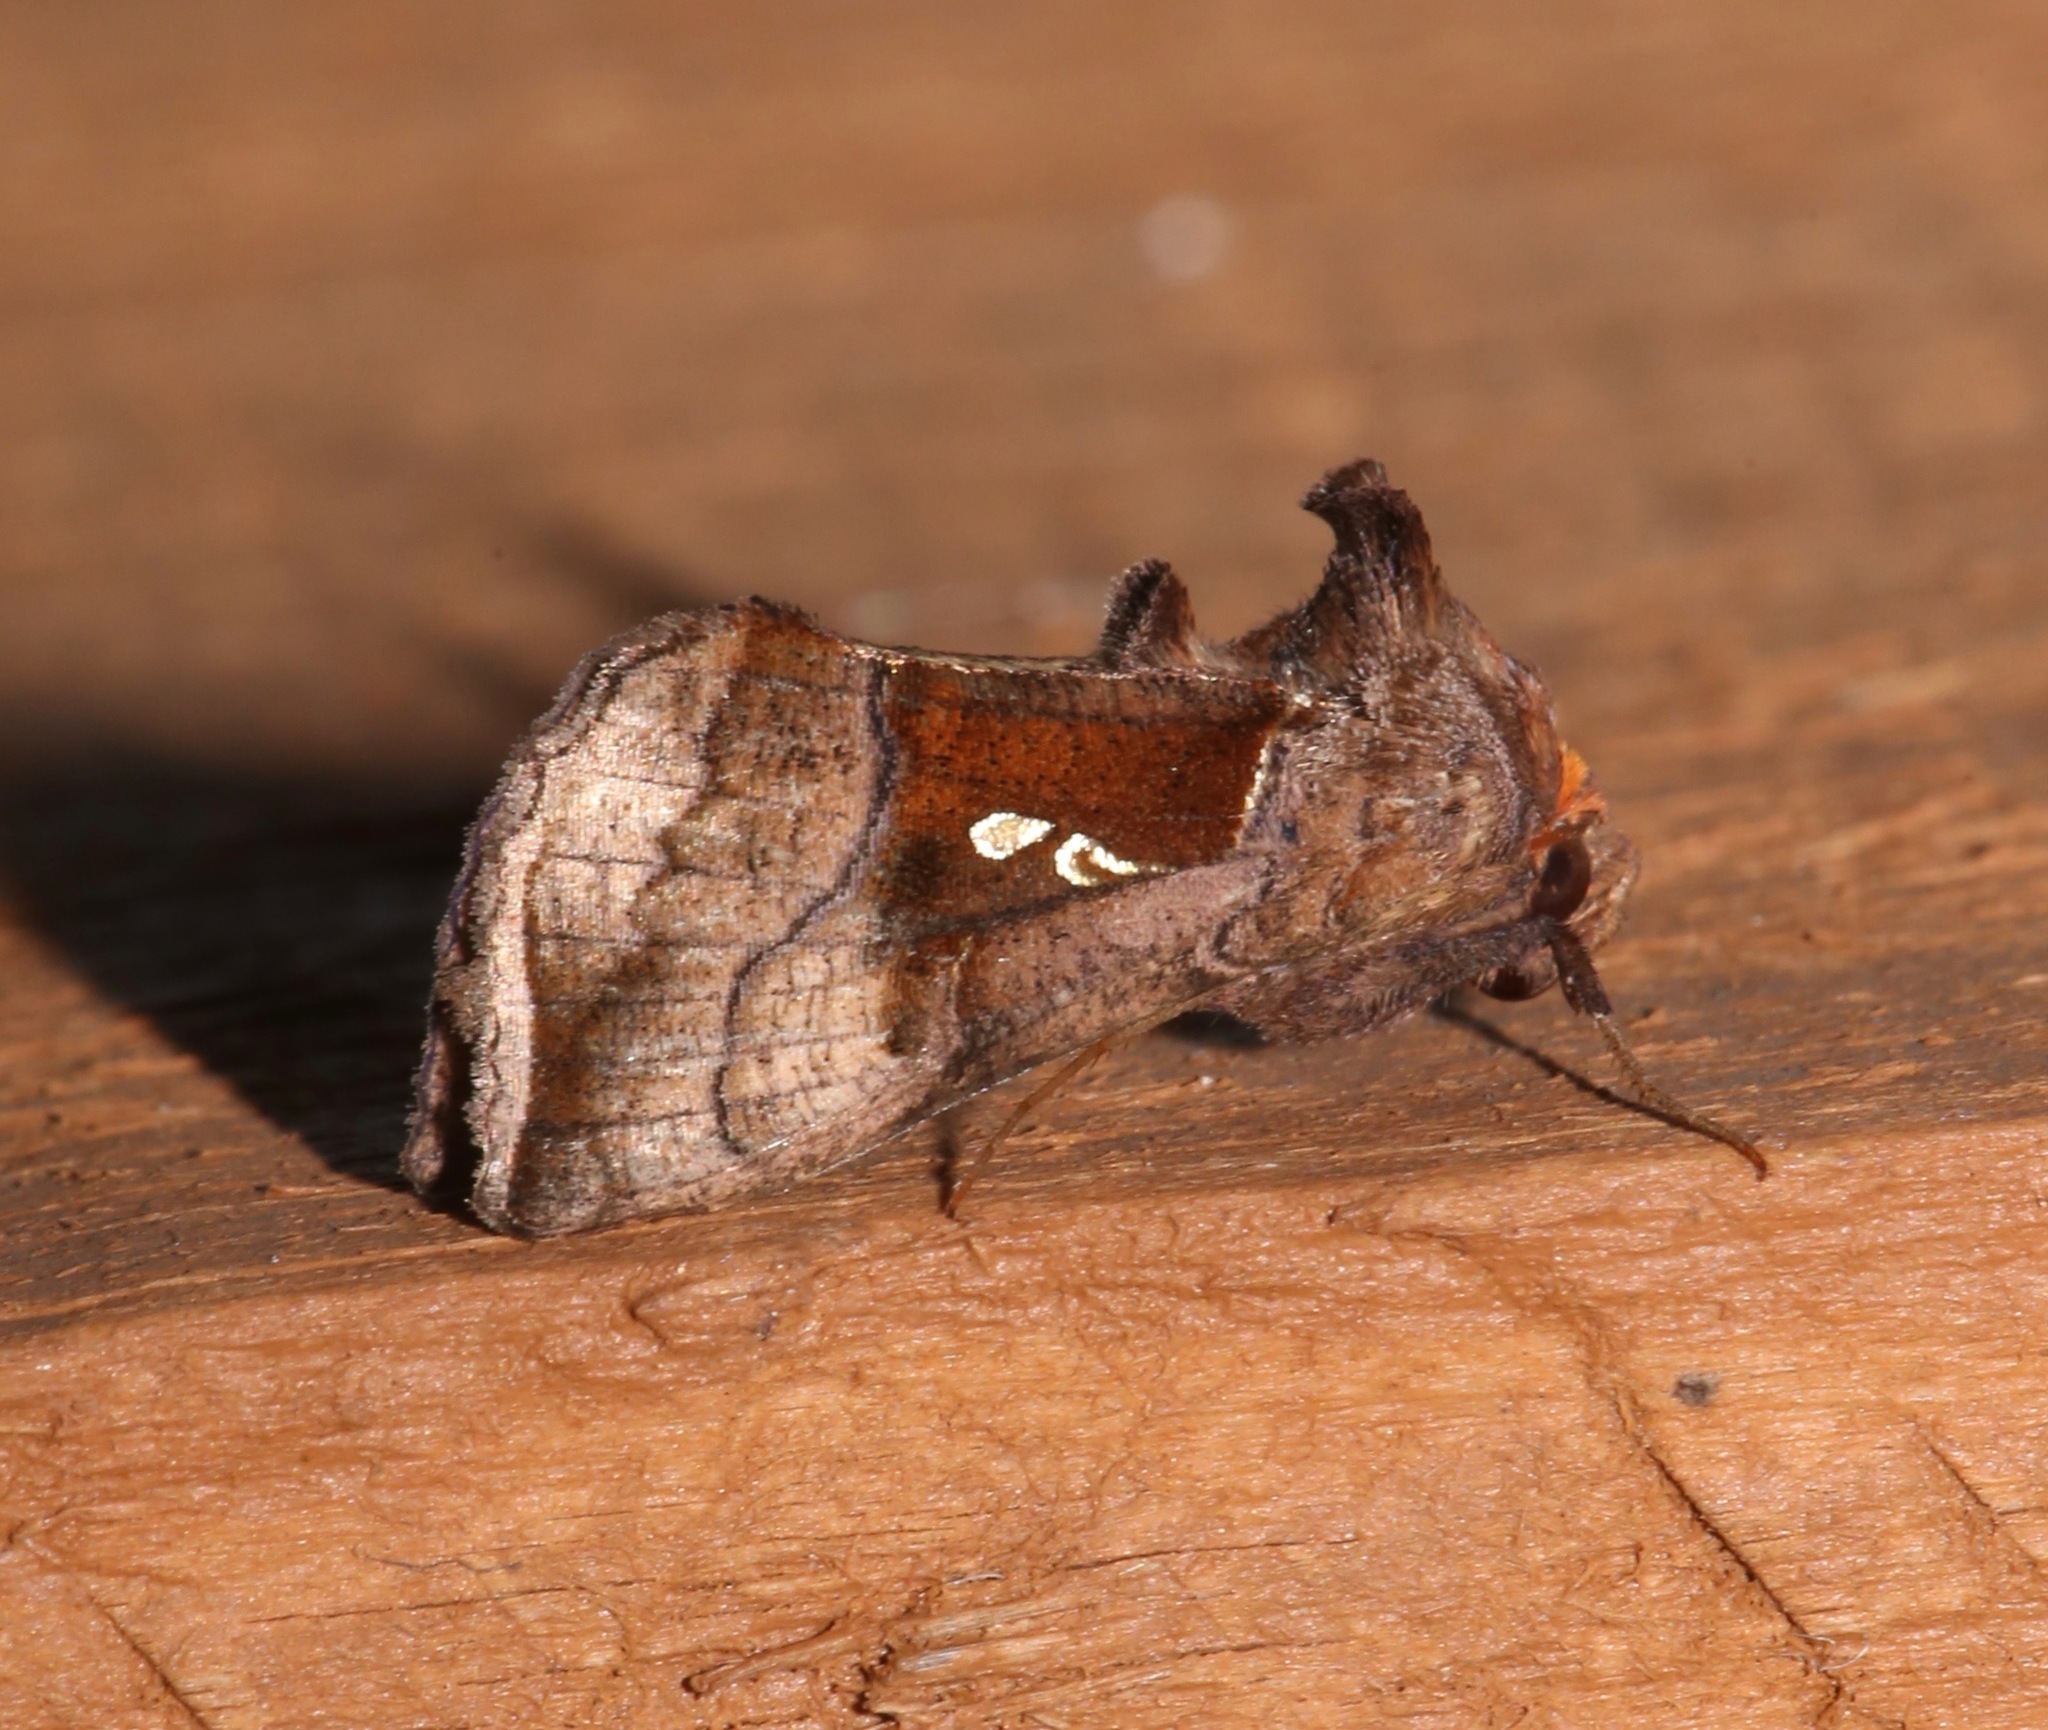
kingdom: Animalia
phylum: Arthropoda
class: Insecta
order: Lepidoptera
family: Noctuidae
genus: Enigmogramma
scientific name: Enigmogramma basigera
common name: Pink-washed looper moth
